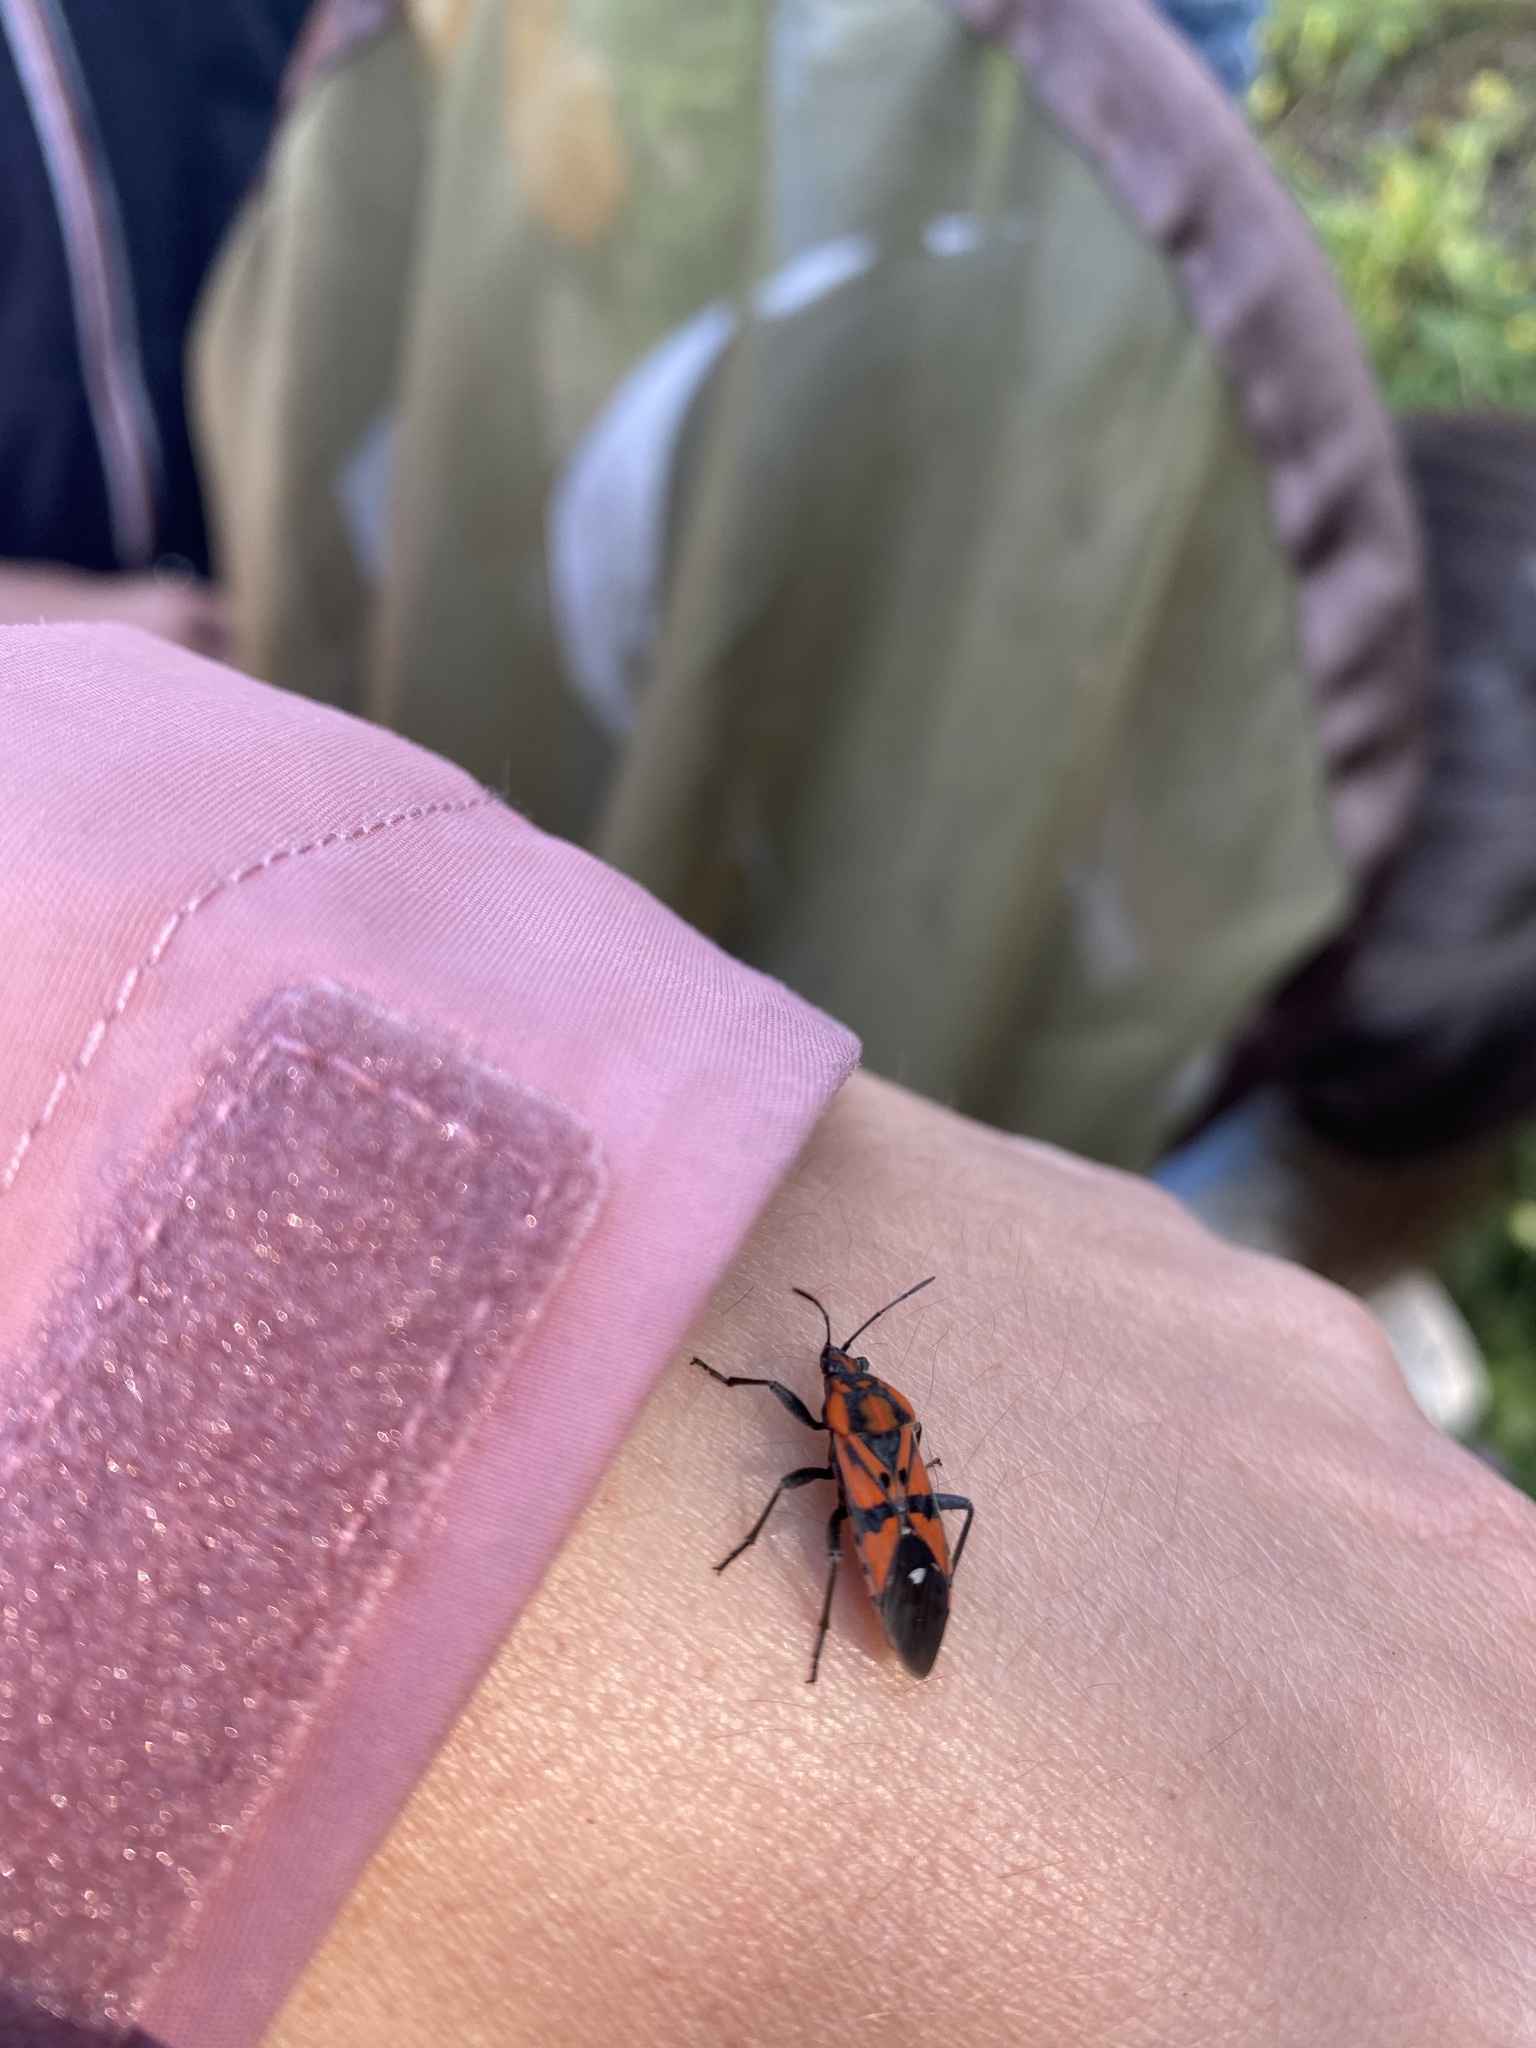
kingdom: Animalia
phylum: Arthropoda
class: Insecta
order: Hemiptera
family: Lygaeidae
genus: Spilostethus
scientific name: Spilostethus pandurus
